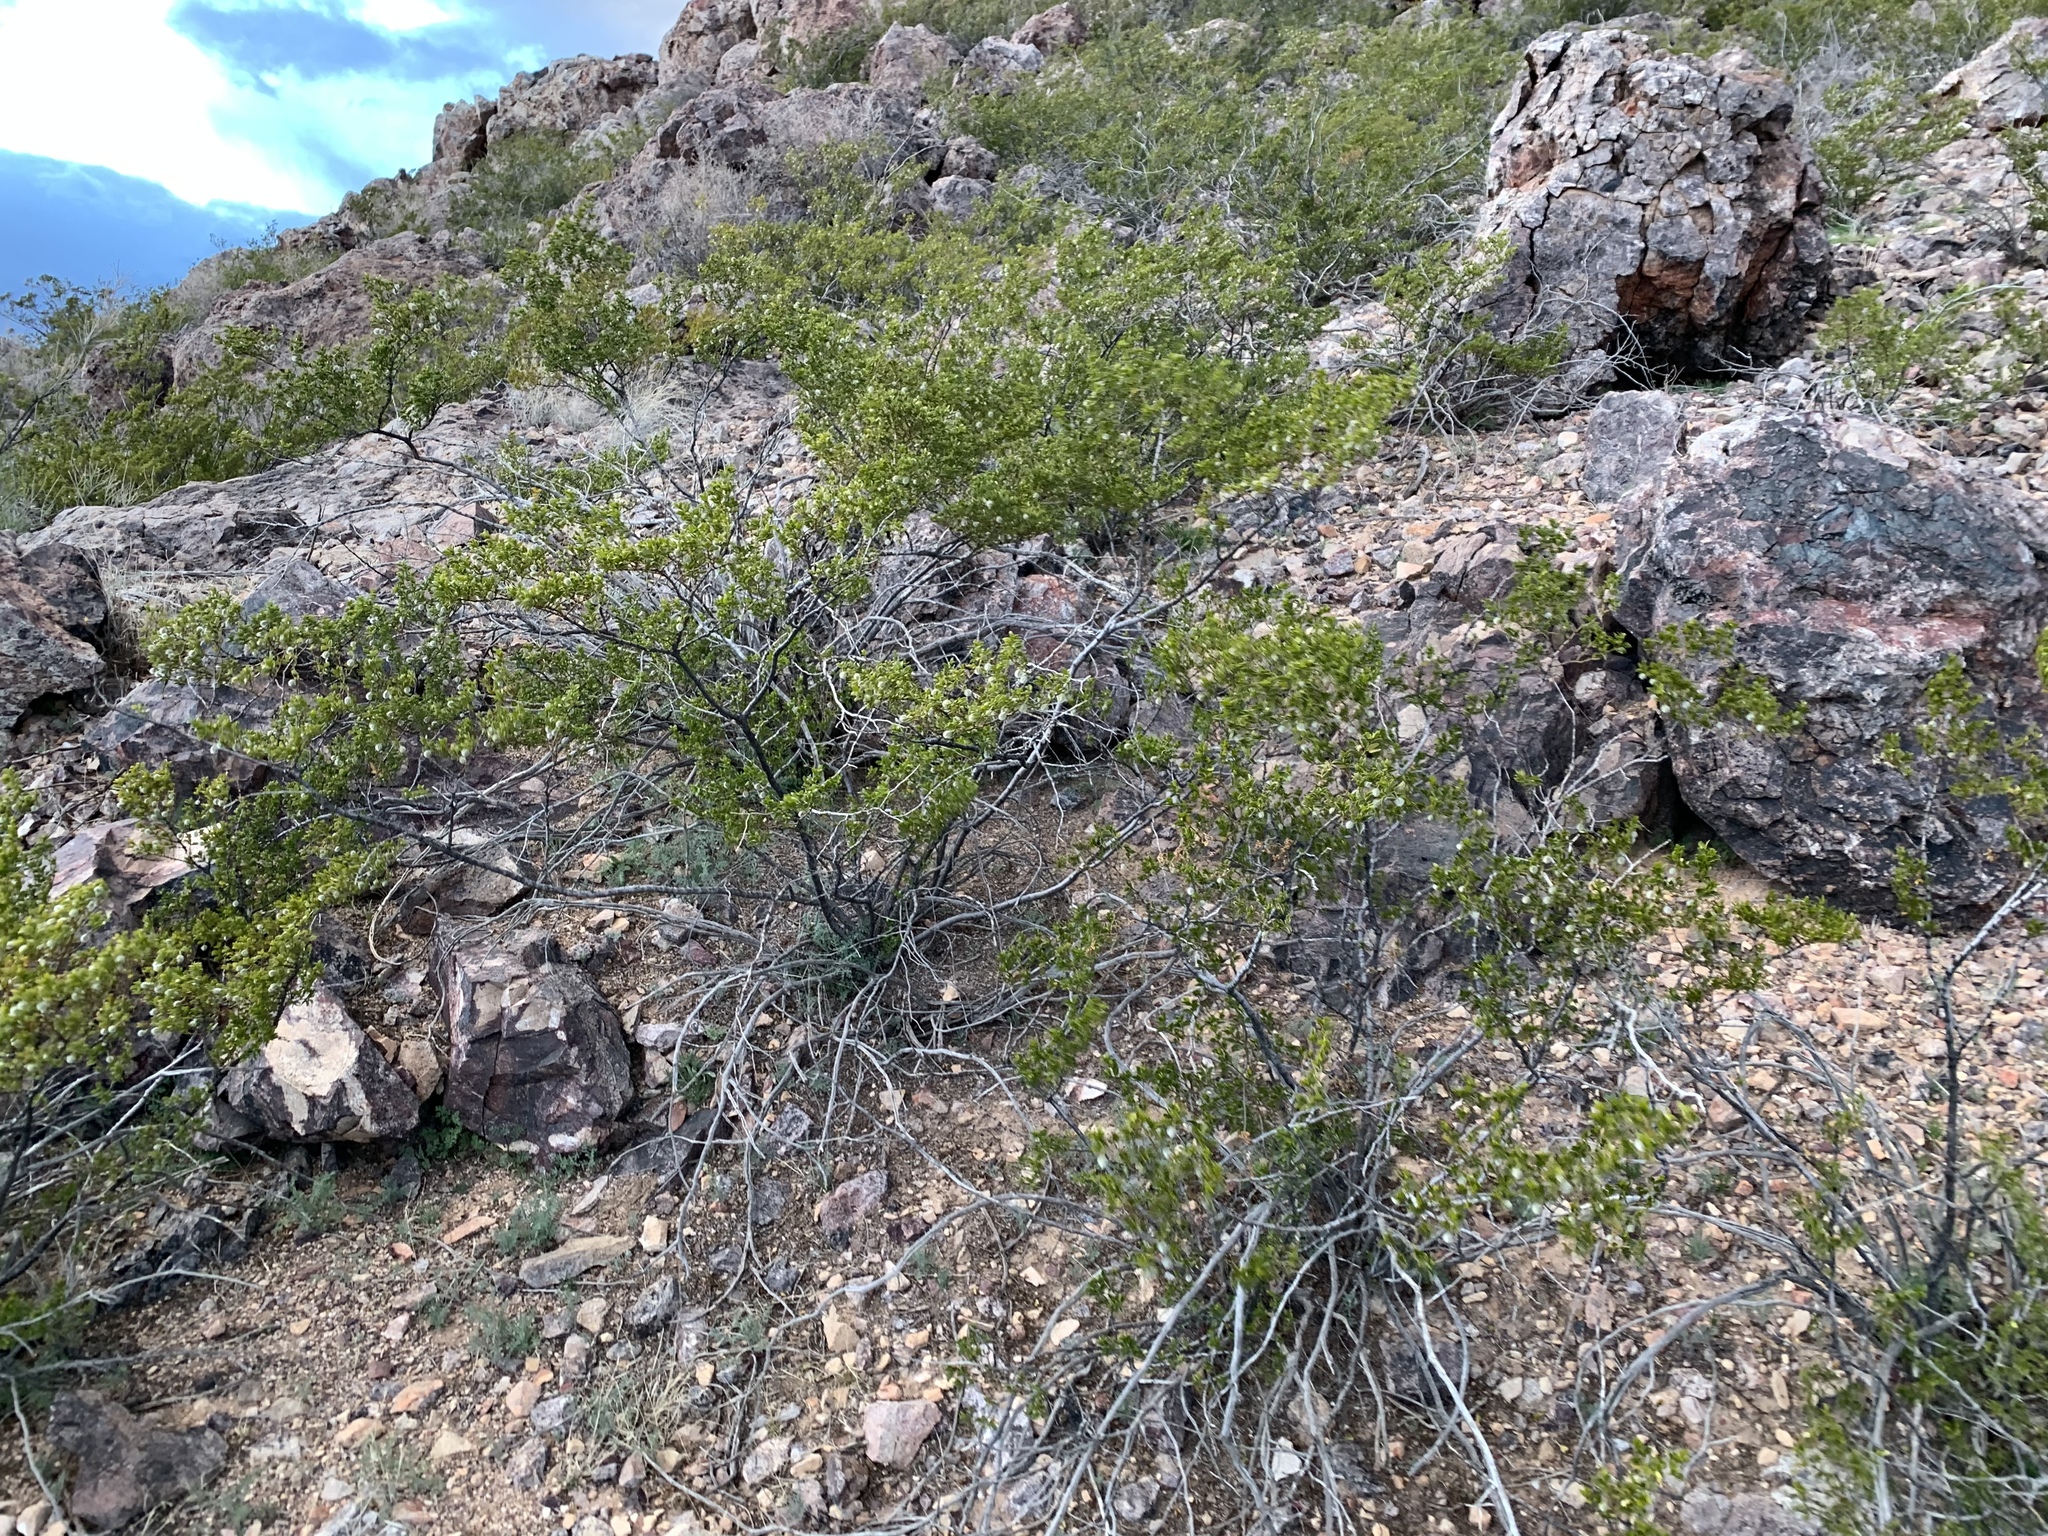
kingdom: Plantae
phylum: Tracheophyta
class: Magnoliopsida
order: Zygophyllales
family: Zygophyllaceae
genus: Larrea
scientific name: Larrea tridentata
